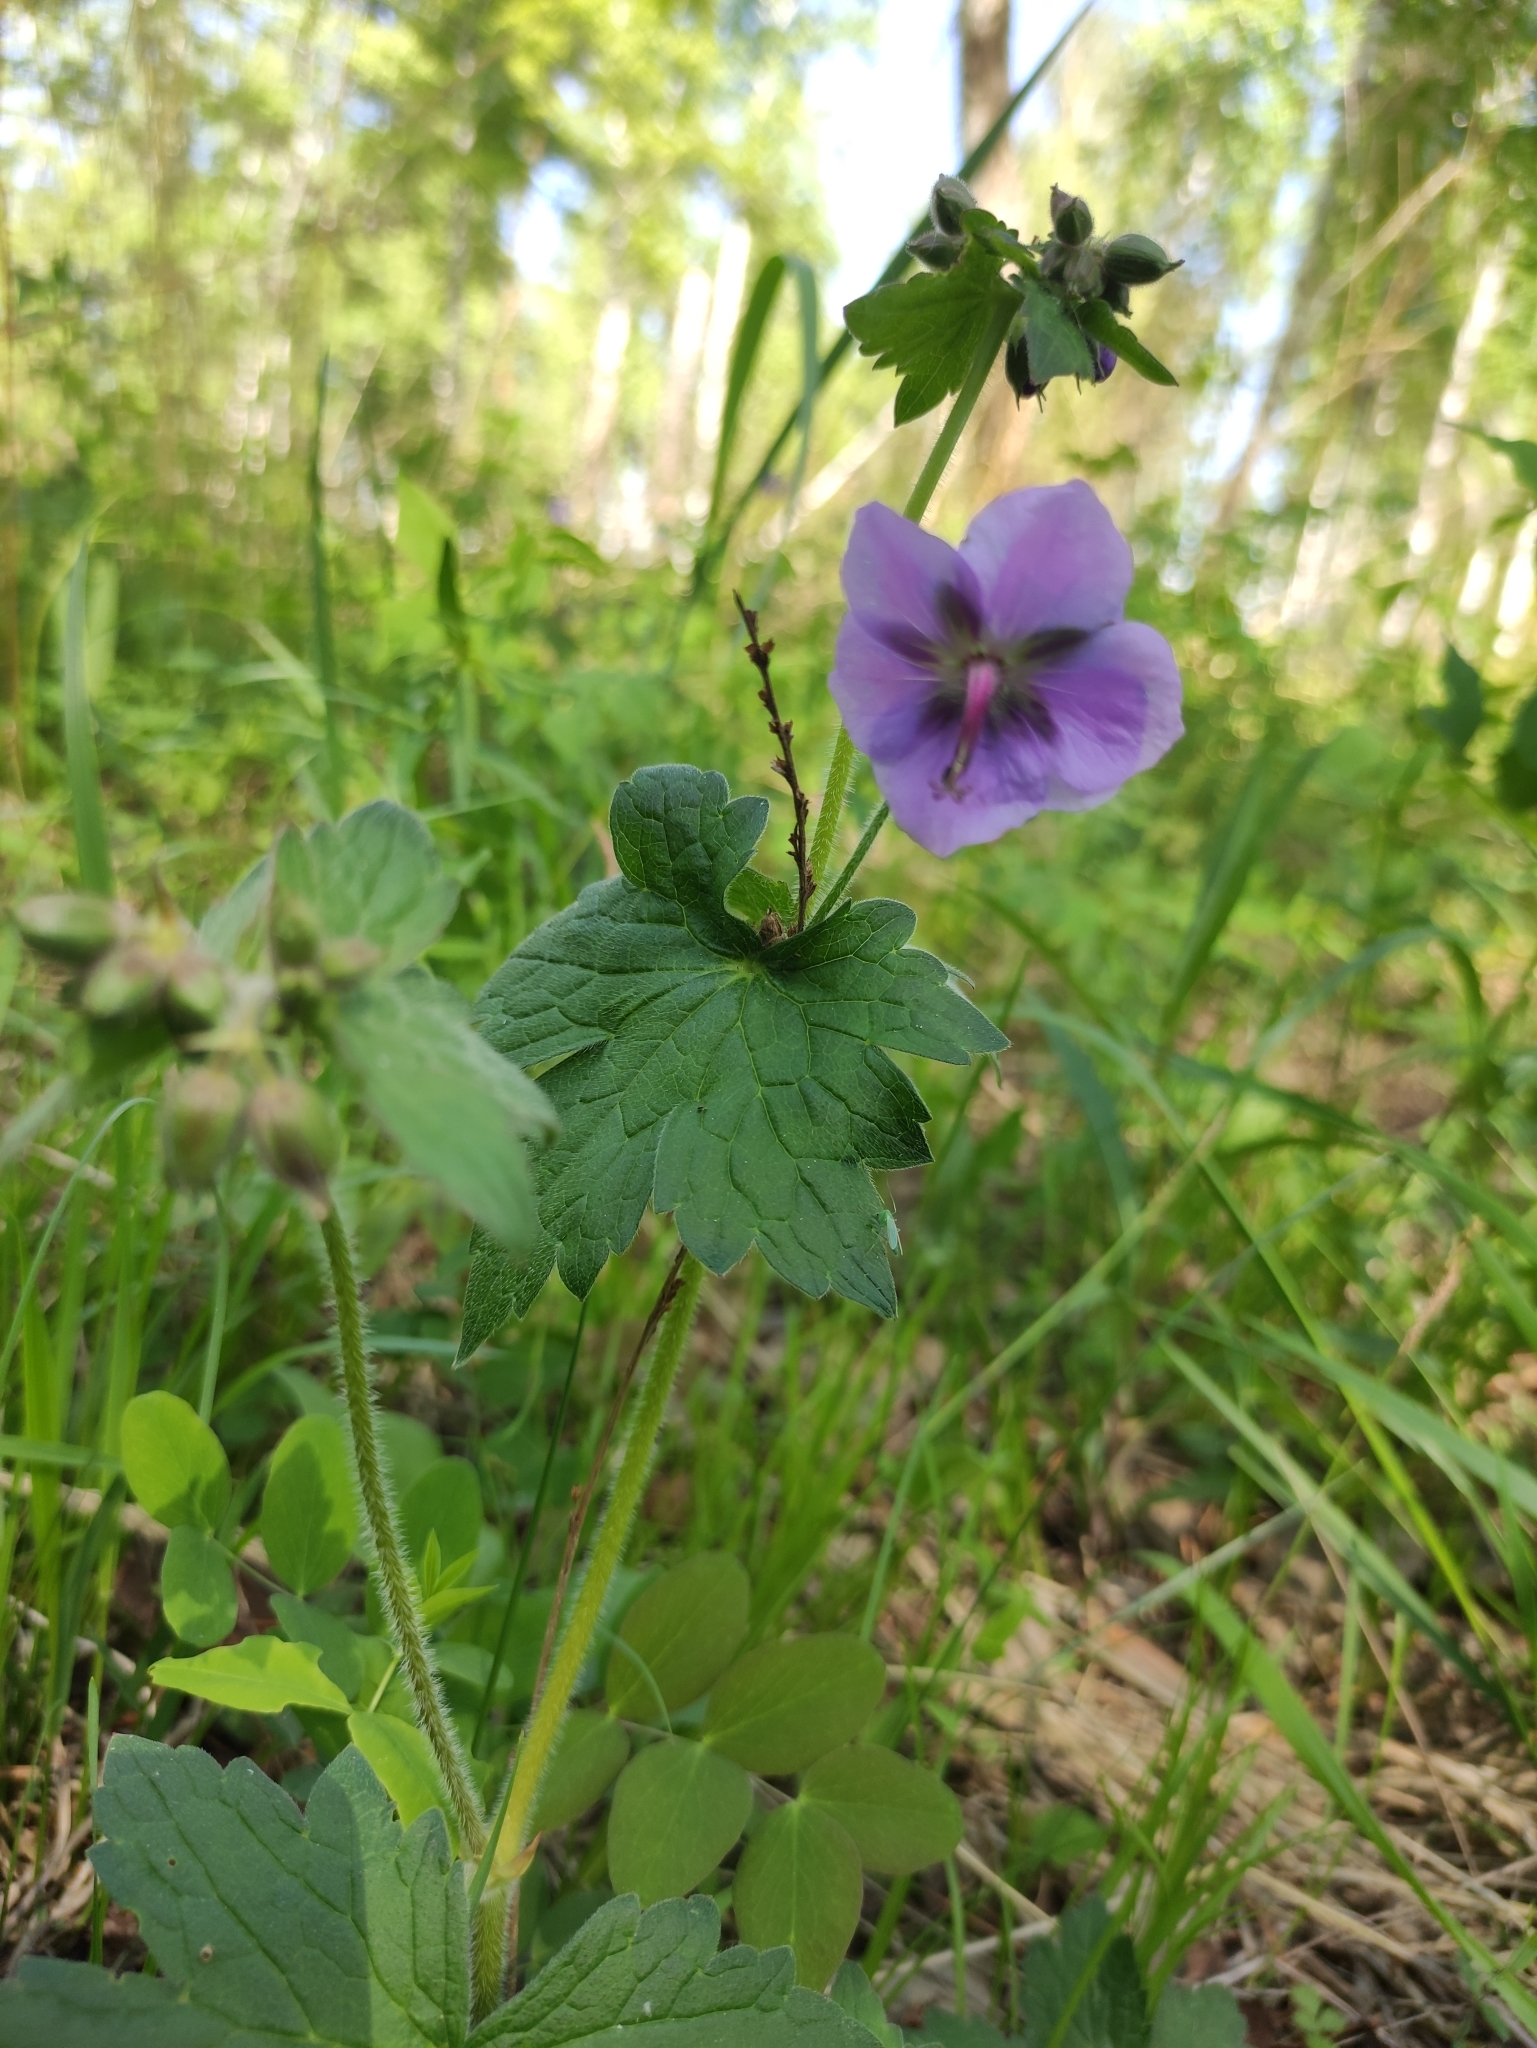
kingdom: Plantae
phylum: Tracheophyta
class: Magnoliopsida
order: Geraniales
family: Geraniaceae
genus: Geranium
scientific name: Geranium platyanthum
